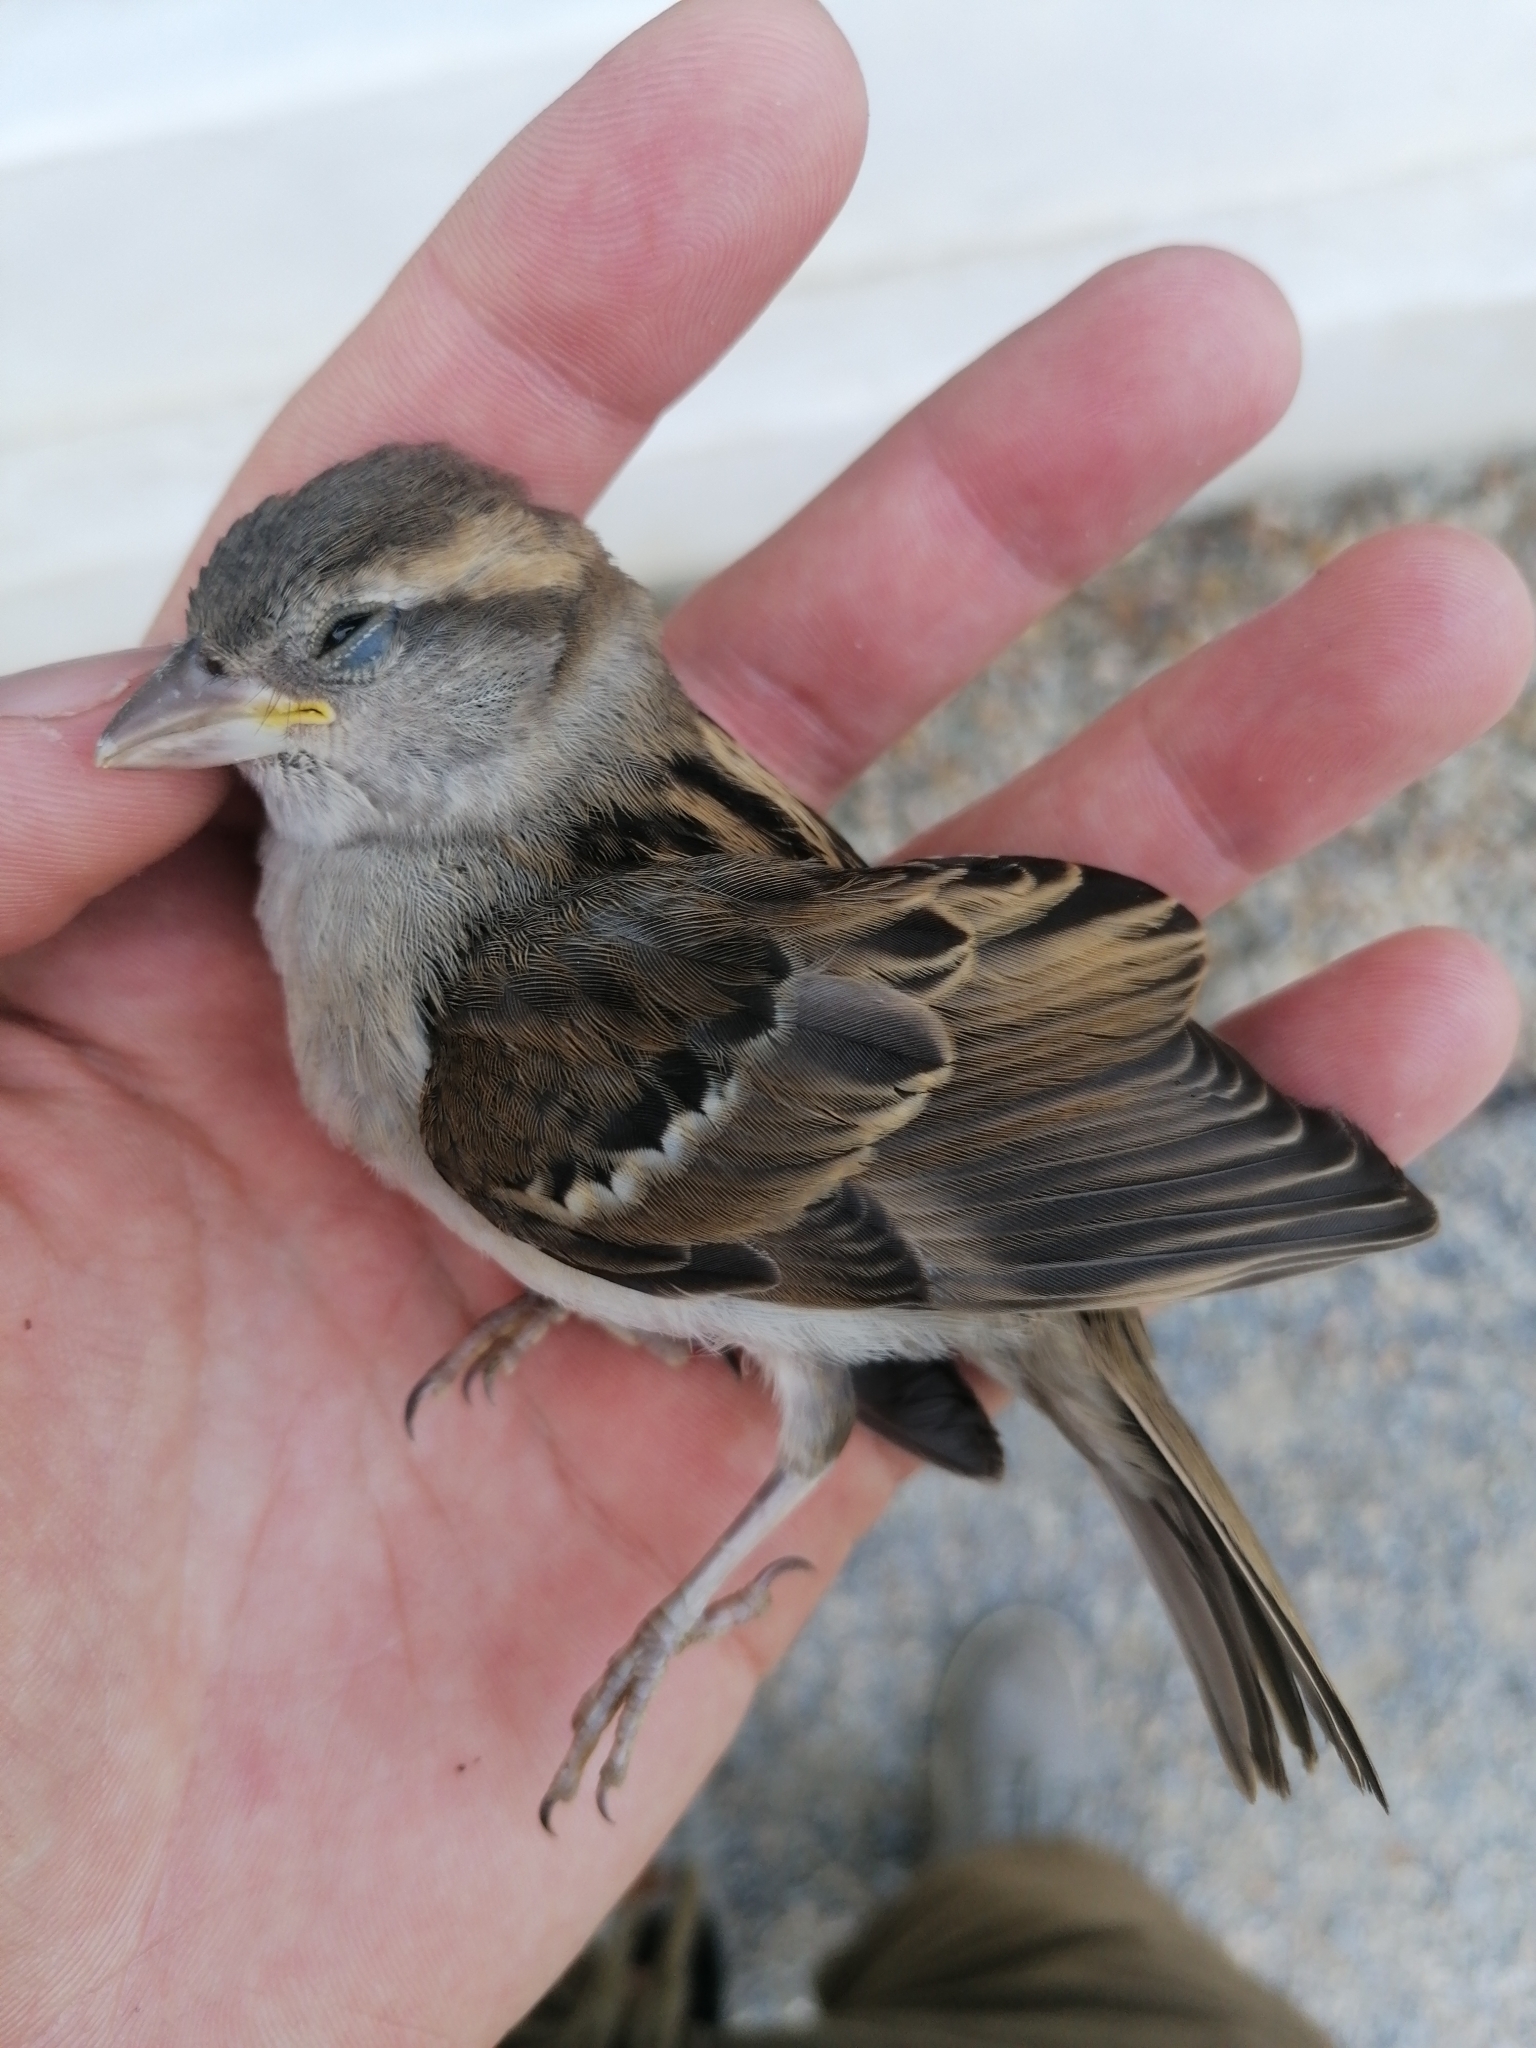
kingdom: Animalia
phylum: Chordata
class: Aves
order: Passeriformes
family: Passeridae
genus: Passer
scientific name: Passer domesticus
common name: House sparrow
